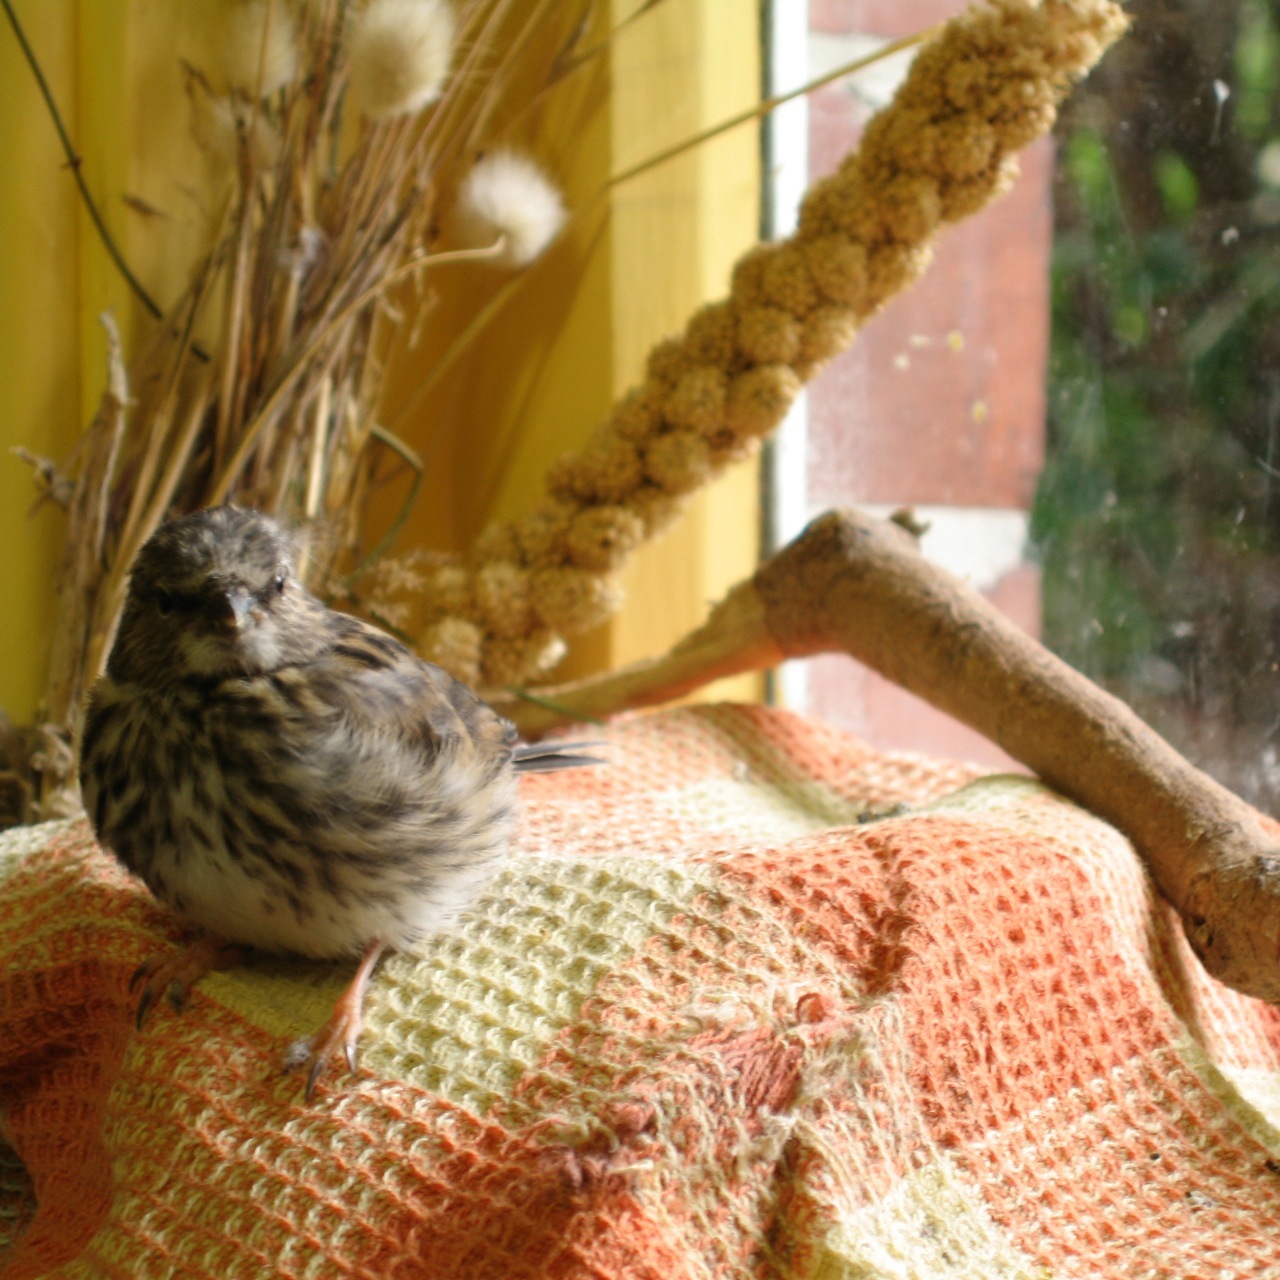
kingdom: Animalia
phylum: Chordata
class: Aves
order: Passeriformes
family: Fringillidae
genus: Acanthis
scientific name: Acanthis flammea
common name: Common redpoll
